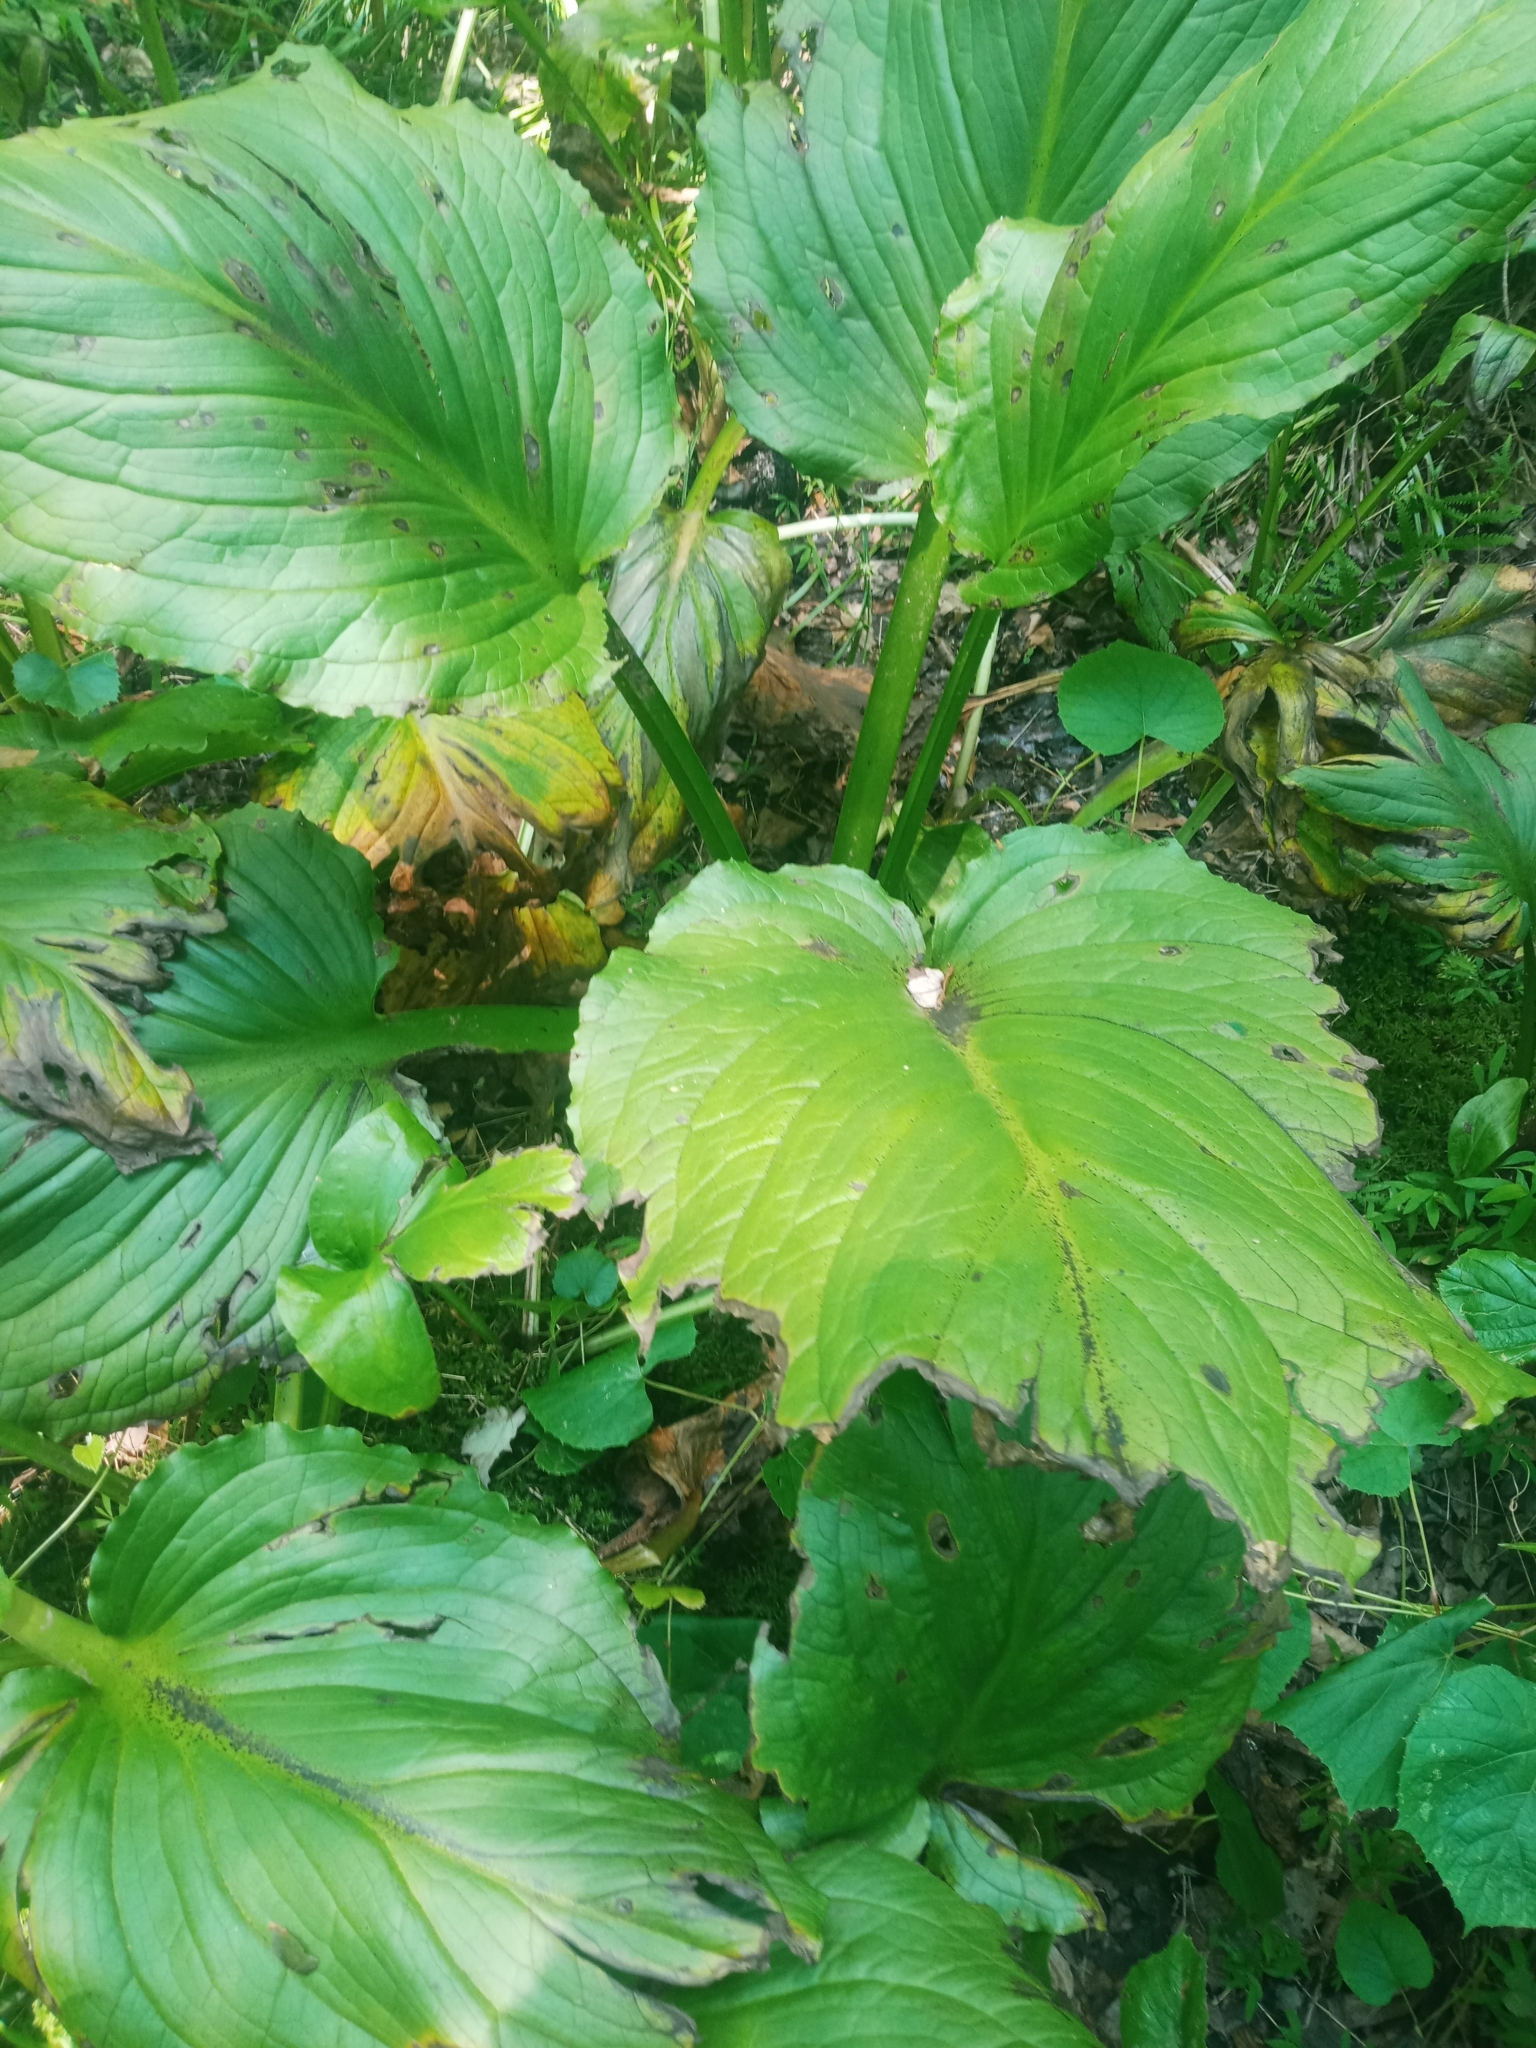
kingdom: Plantae
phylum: Tracheophyta
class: Liliopsida
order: Alismatales
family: Araceae
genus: Symplocarpus
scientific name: Symplocarpus foetidus
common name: Eastern skunk cabbage
